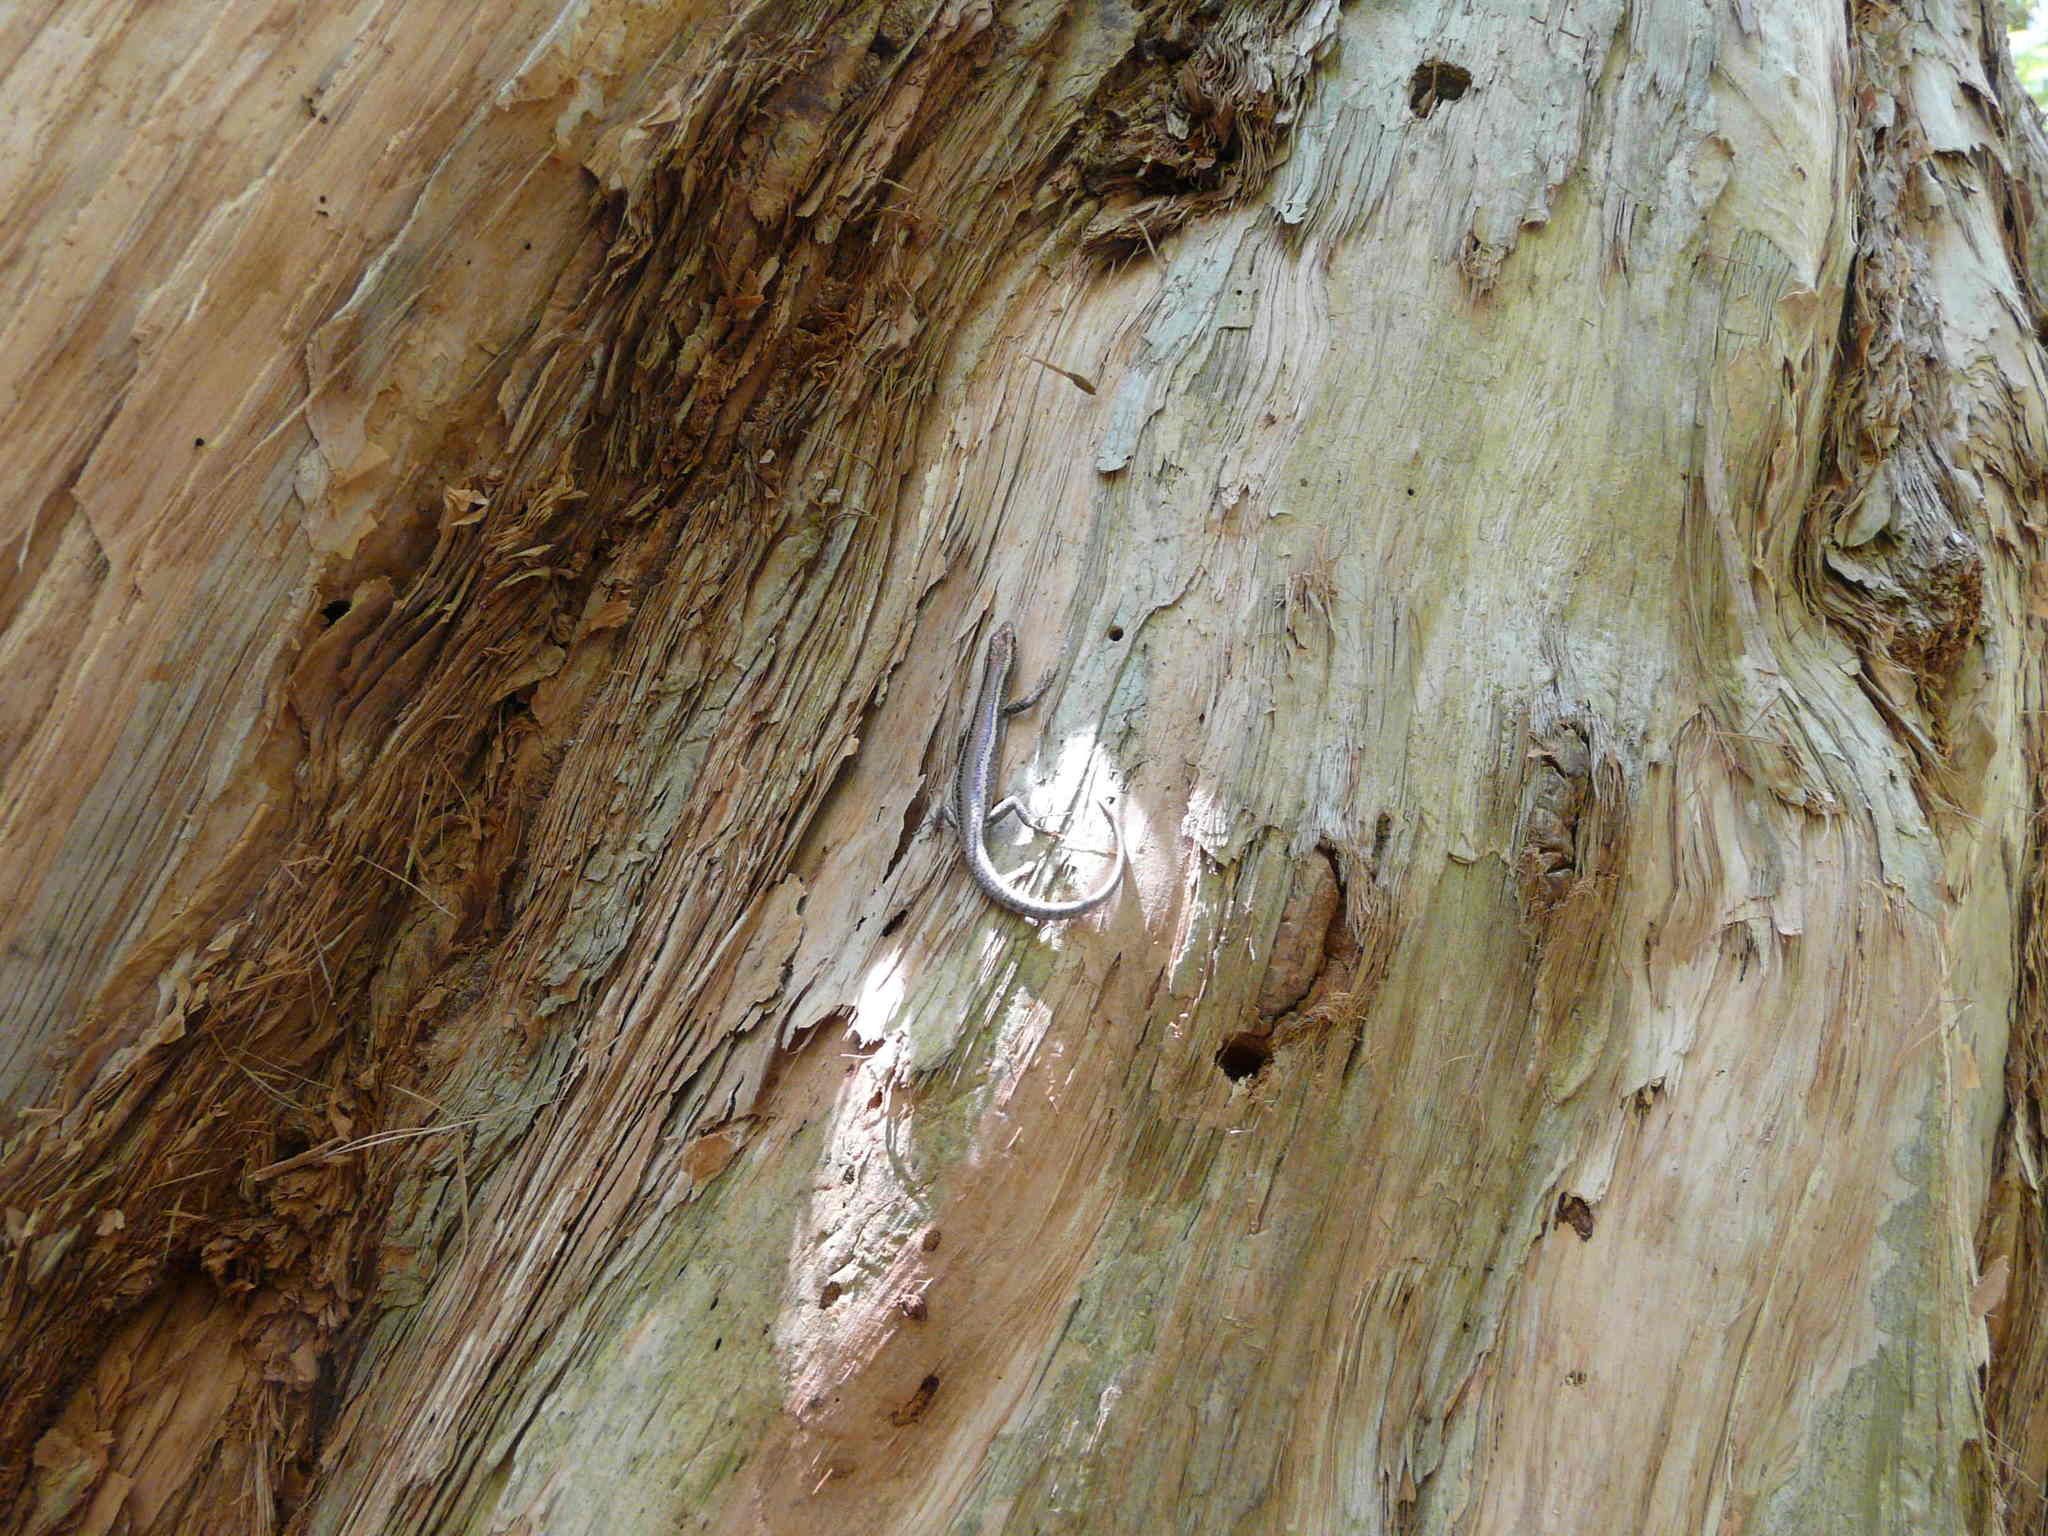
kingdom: Animalia
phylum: Chordata
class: Squamata
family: Scincidae
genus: Cryptoblepharus
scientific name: Cryptoblepharus virgatus
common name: Cream-striped shinning-skink
